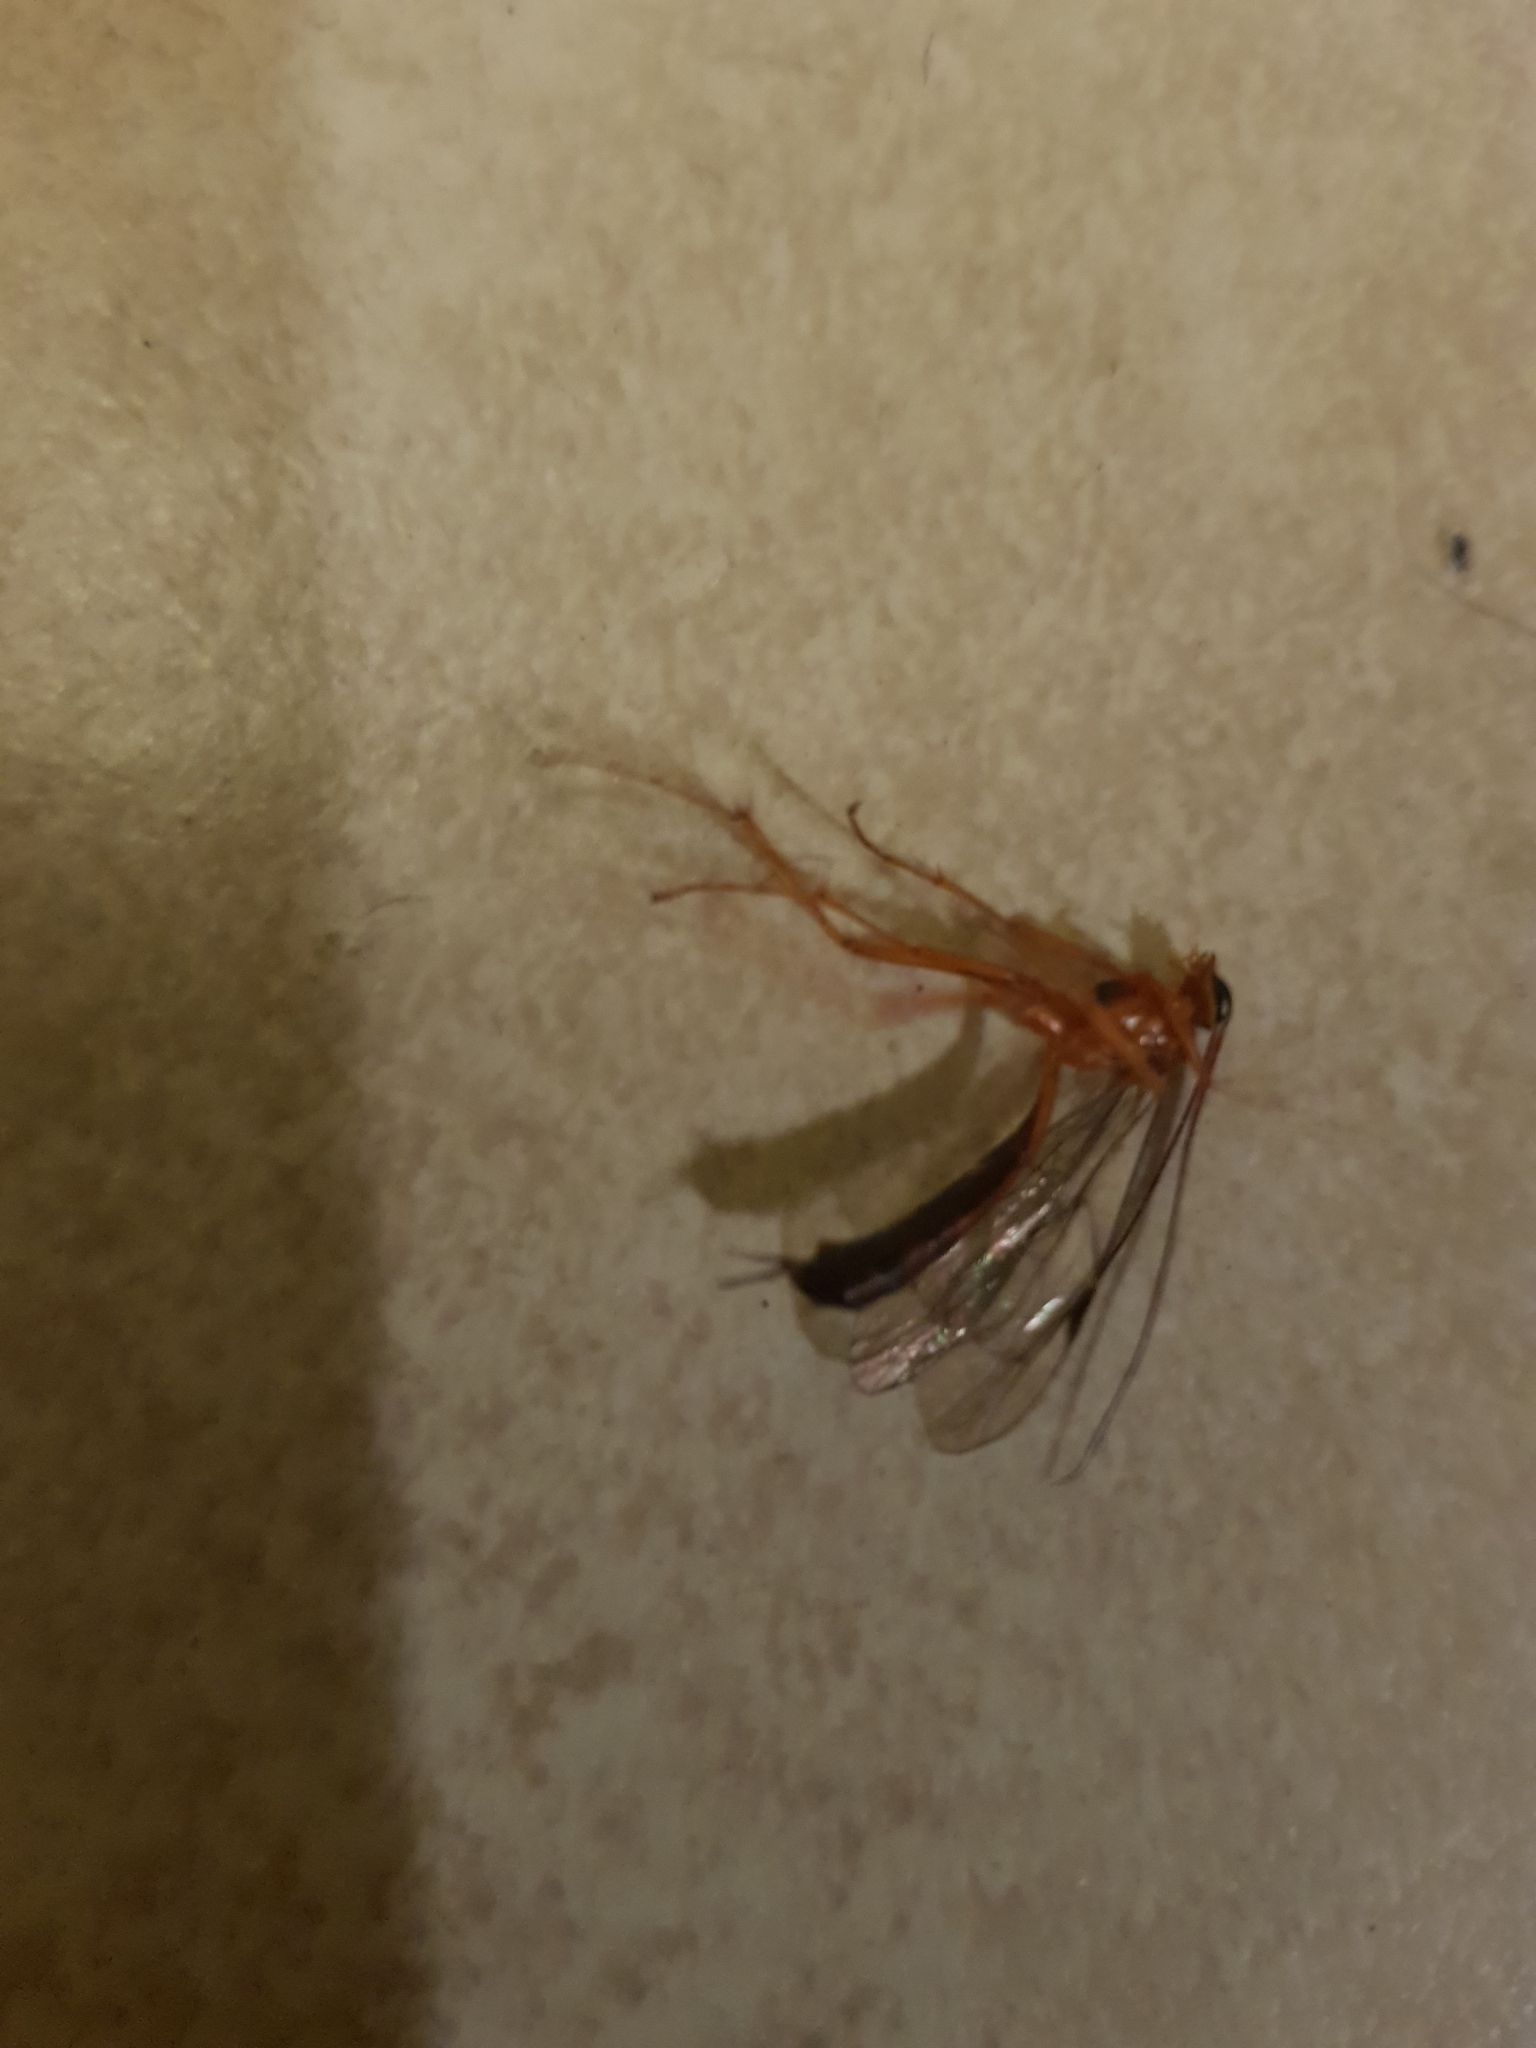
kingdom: Animalia
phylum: Arthropoda
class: Insecta
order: Hymenoptera
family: Ichneumonidae
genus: Netelia
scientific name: Netelia ephippiata
